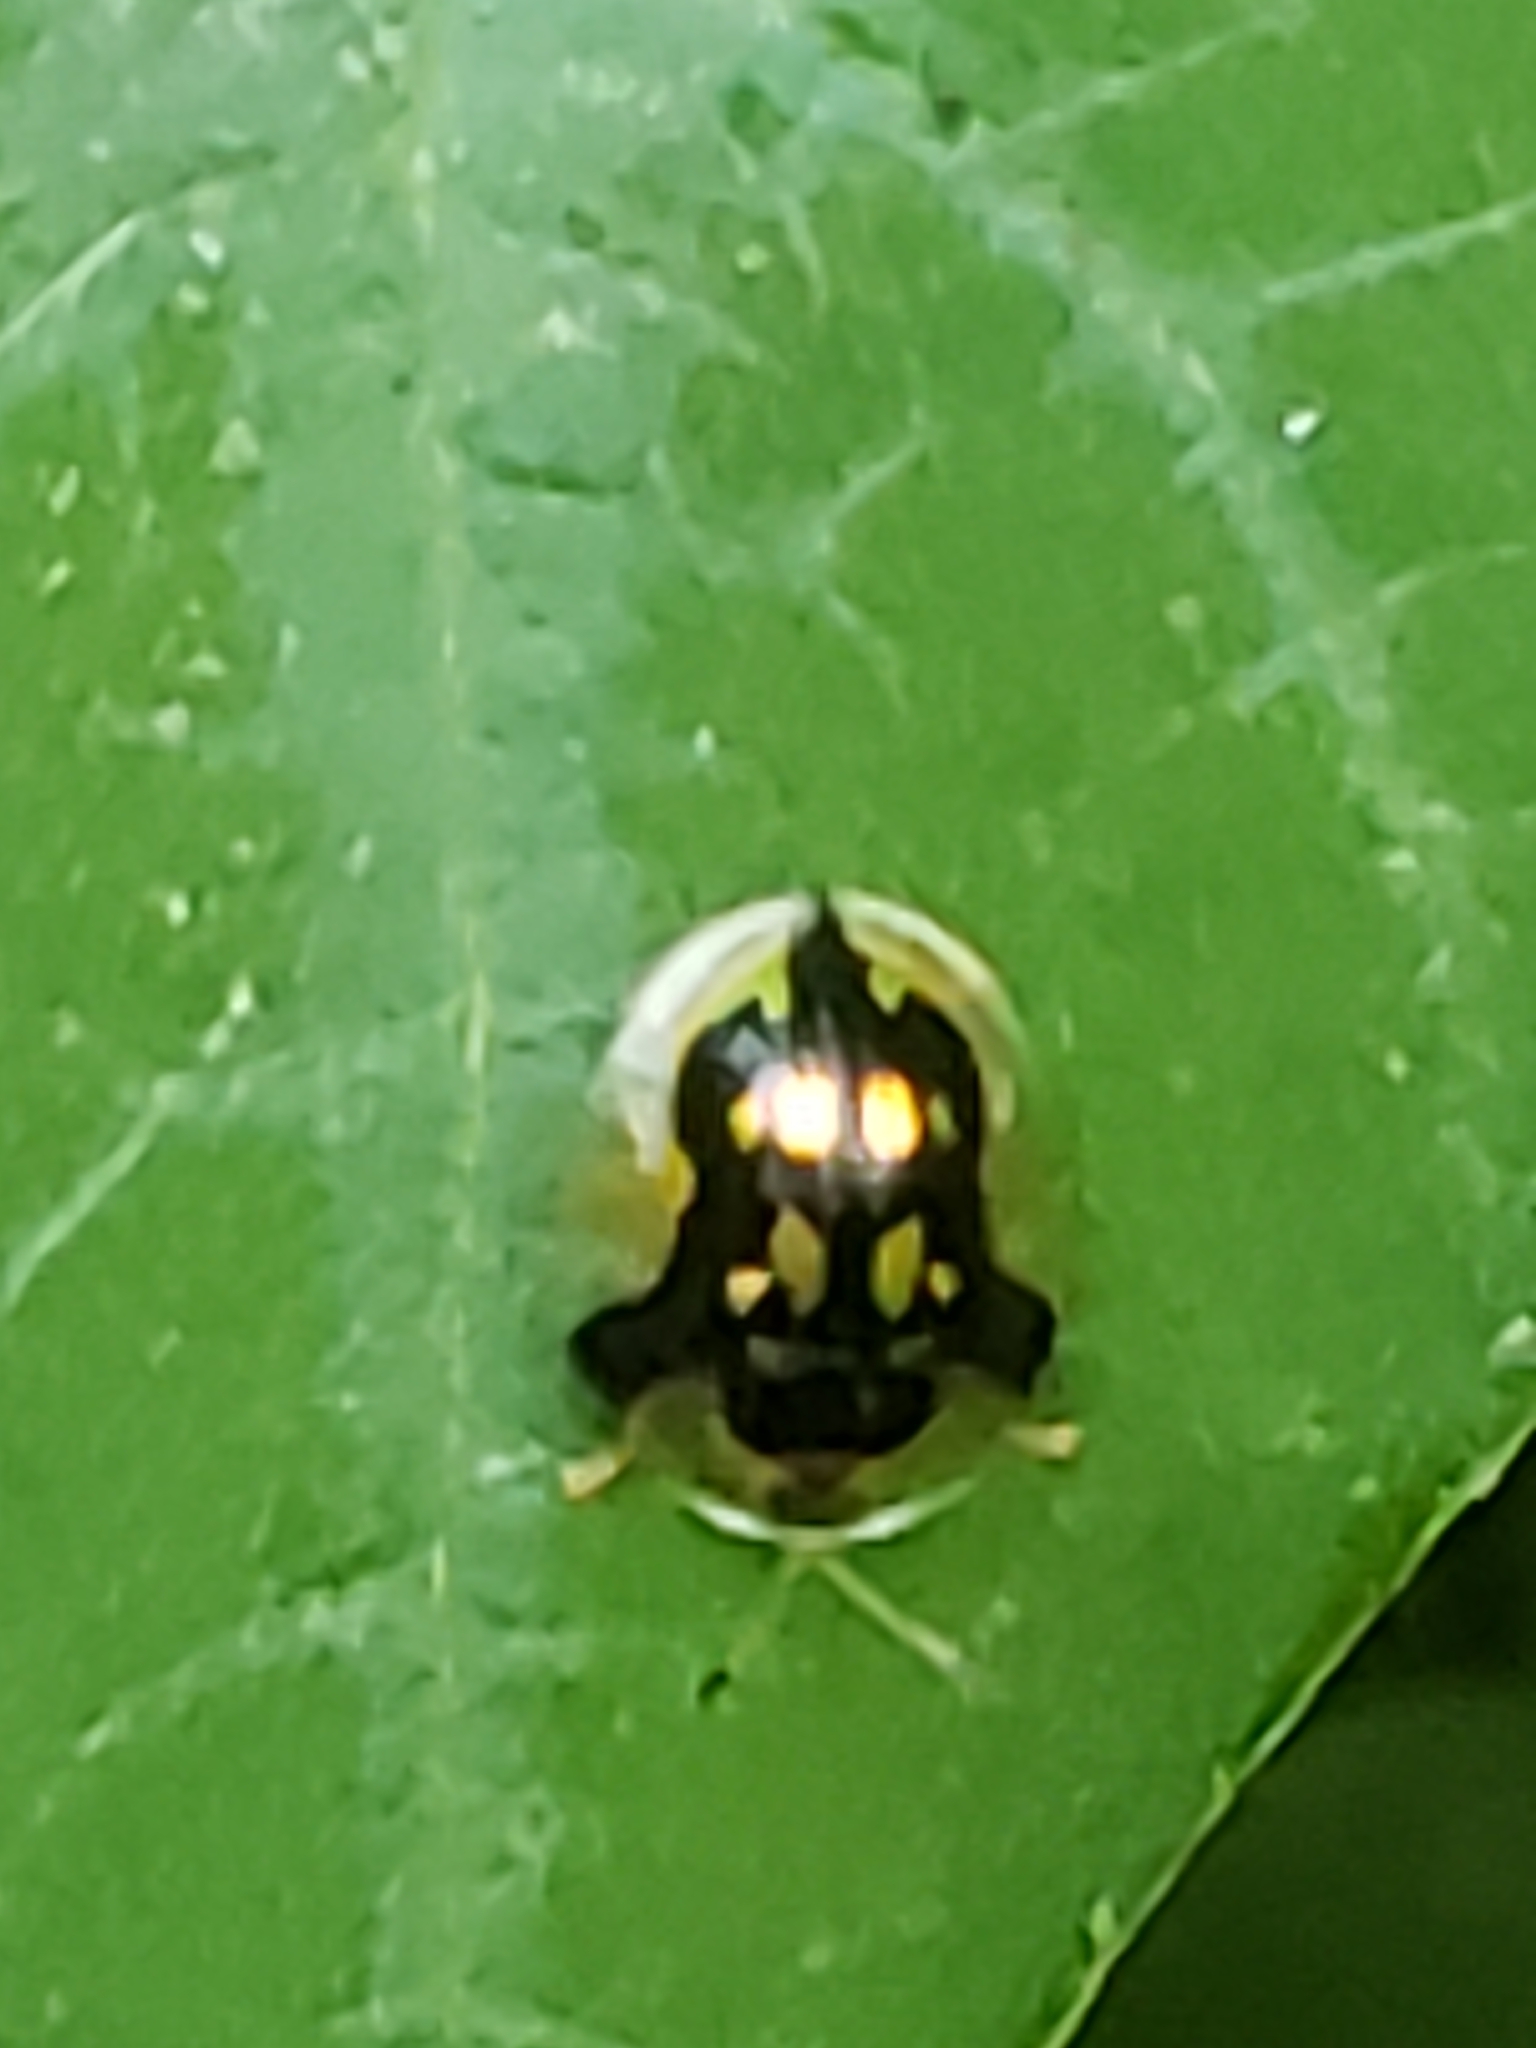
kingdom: Animalia
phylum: Arthropoda
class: Insecta
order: Coleoptera
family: Chrysomelidae
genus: Deloyala
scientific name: Deloyala guttata
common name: Mottled tortoise beetle
